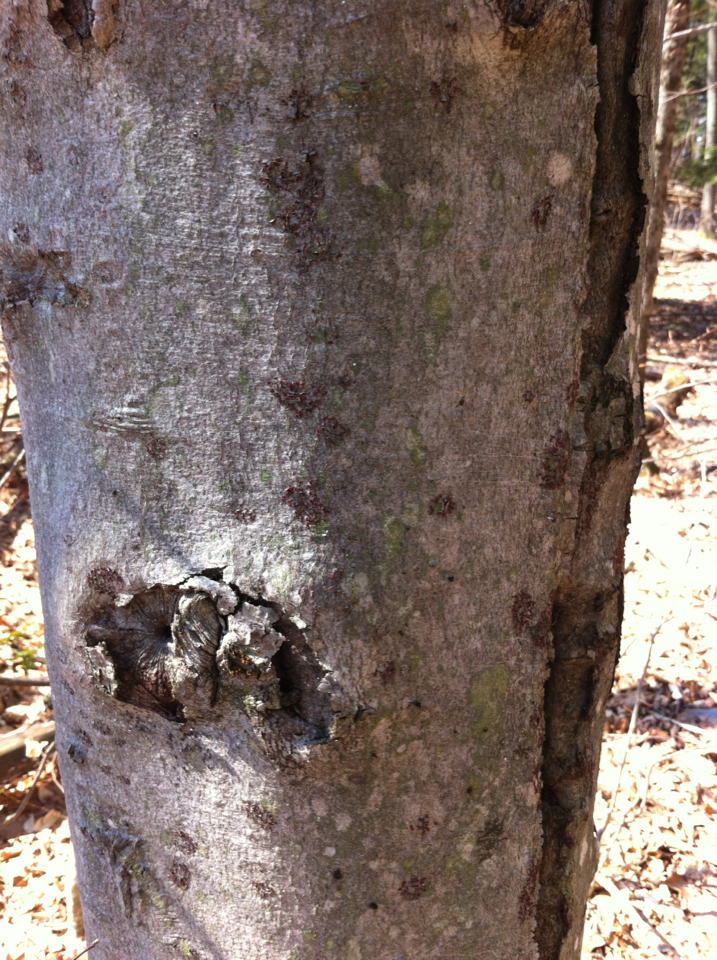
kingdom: Plantae
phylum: Tracheophyta
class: Magnoliopsida
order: Fagales
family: Fagaceae
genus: Fagus
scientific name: Fagus grandifolia
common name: American beech
